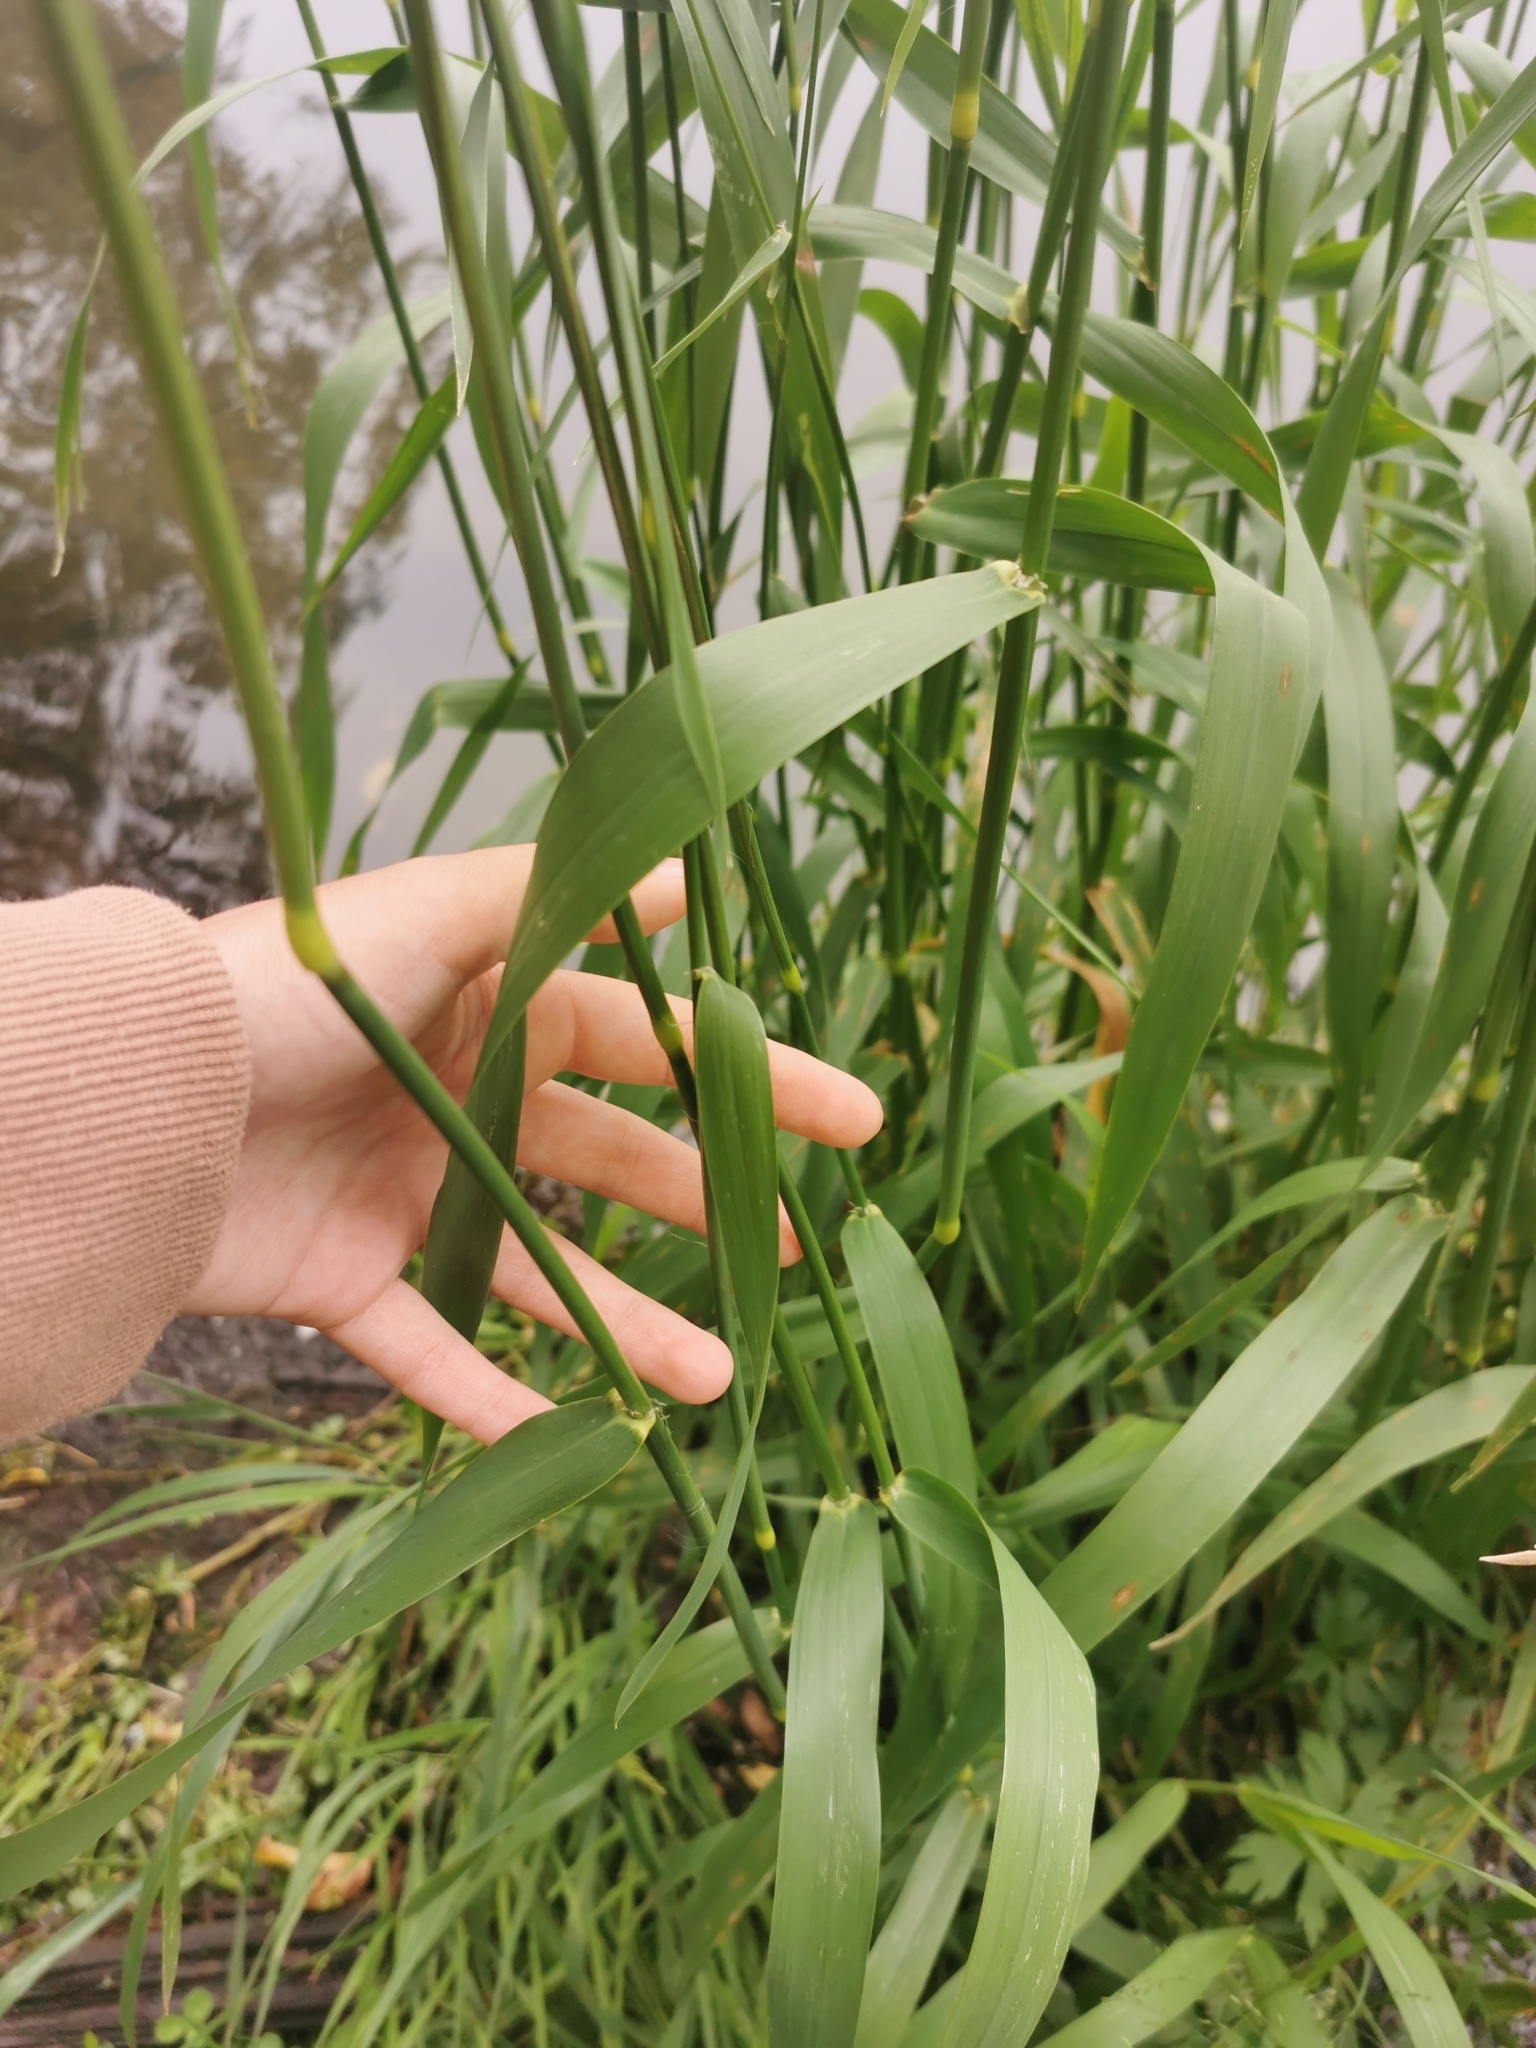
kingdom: Plantae
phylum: Tracheophyta
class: Liliopsida
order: Poales
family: Poaceae
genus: Phalaris
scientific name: Phalaris arundinacea
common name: Reed canary-grass
